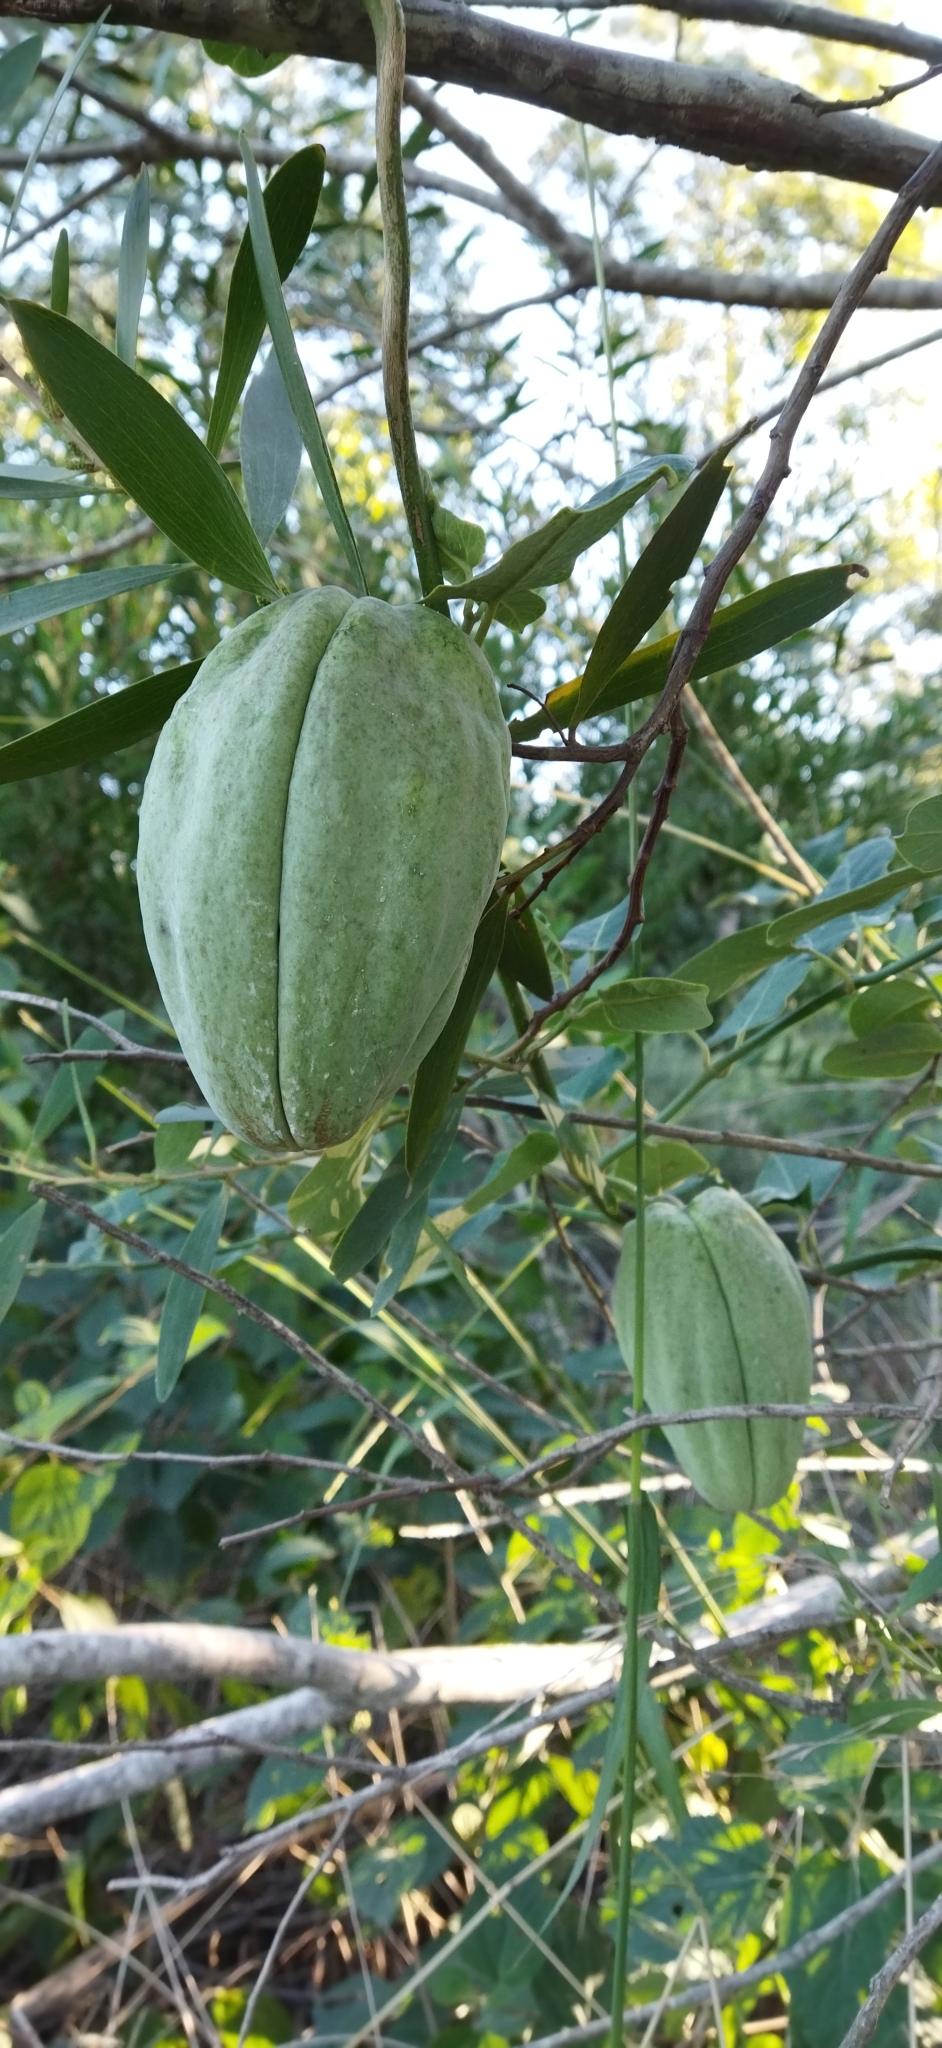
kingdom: Plantae
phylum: Tracheophyta
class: Magnoliopsida
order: Gentianales
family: Apocynaceae
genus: Araujia
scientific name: Araujia sericifera
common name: White bladderflower
